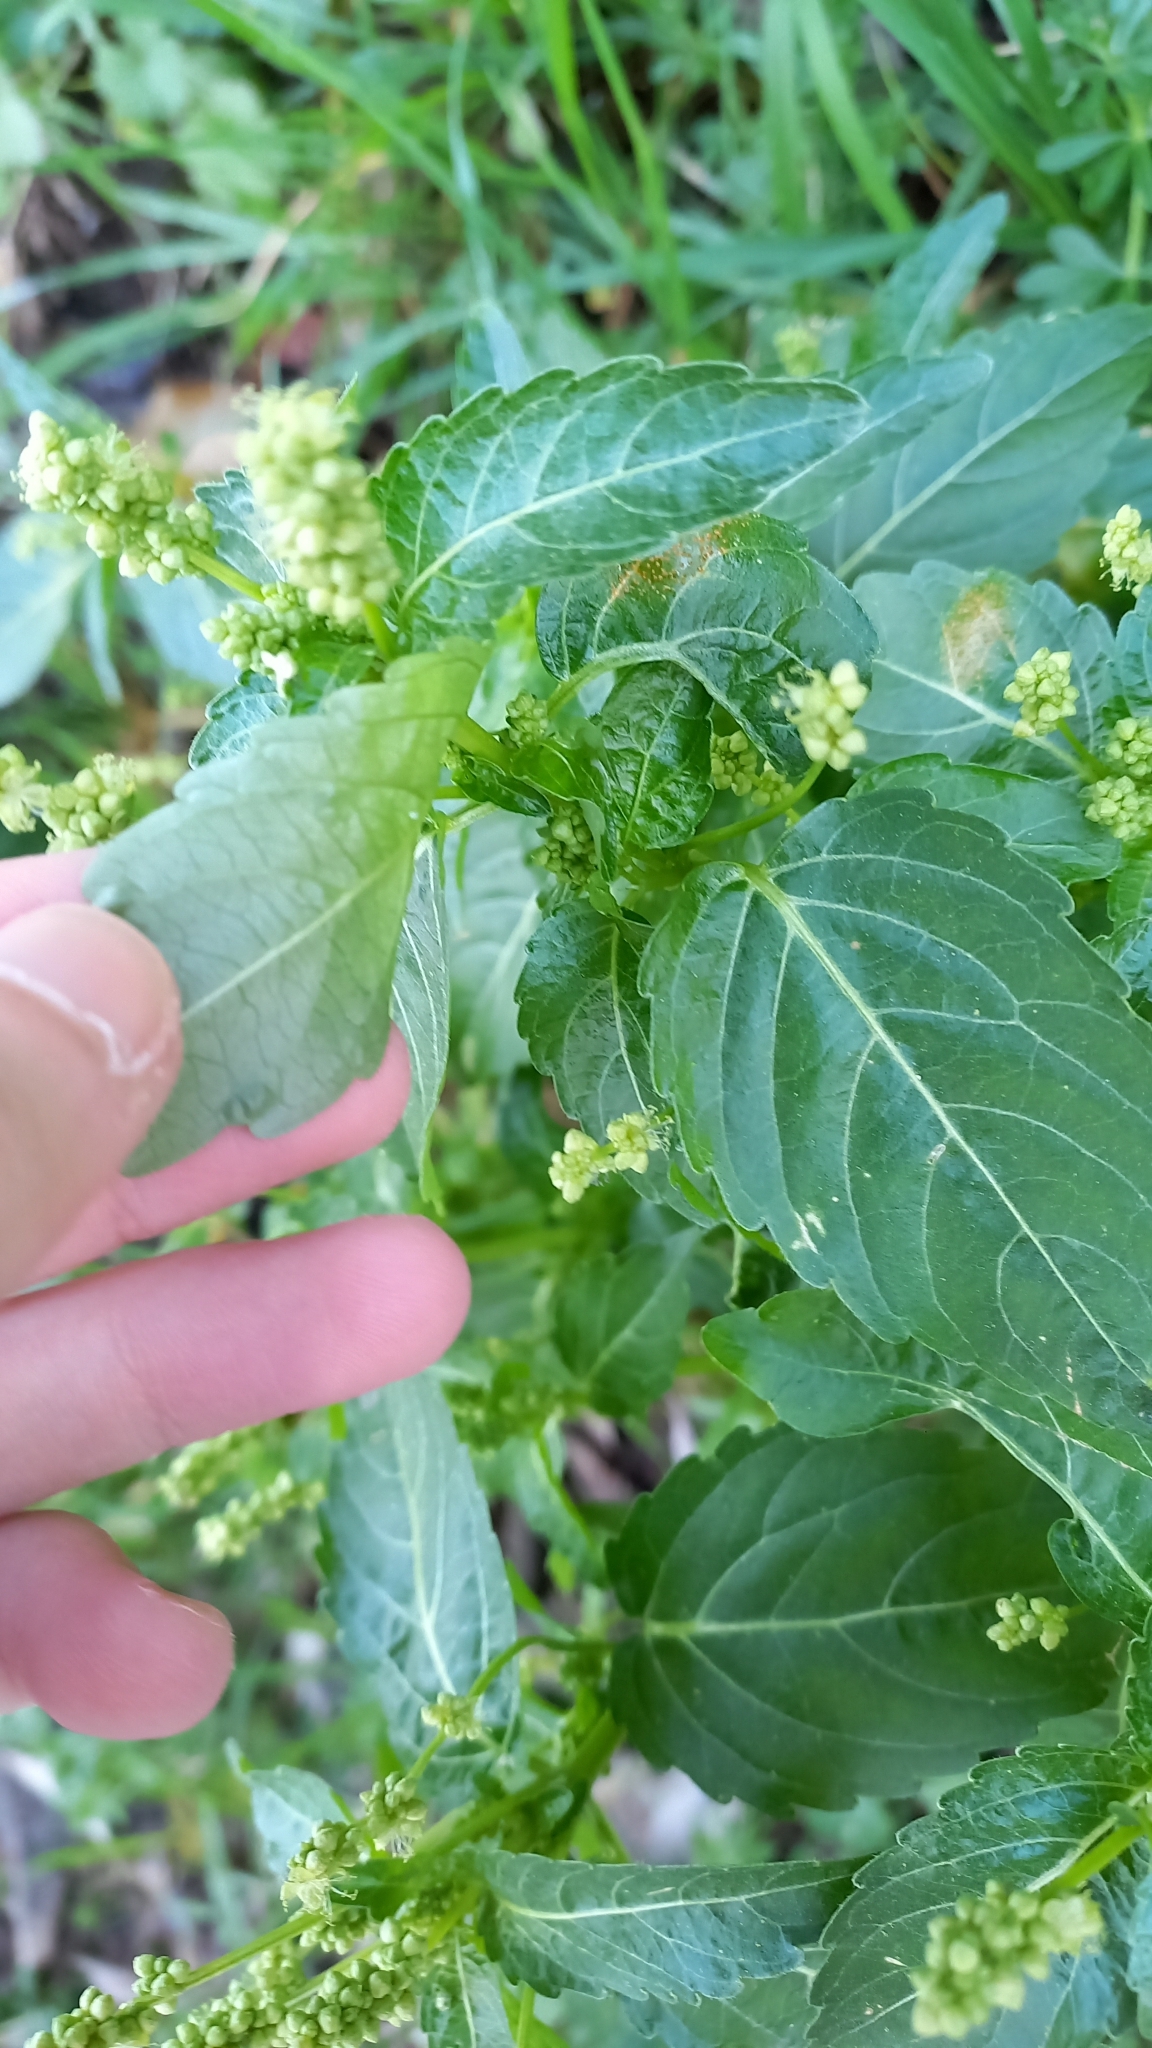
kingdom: Plantae
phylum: Tracheophyta
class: Magnoliopsida
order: Malpighiales
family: Euphorbiaceae
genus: Mercurialis
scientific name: Mercurialis annua
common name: Annual mercury
